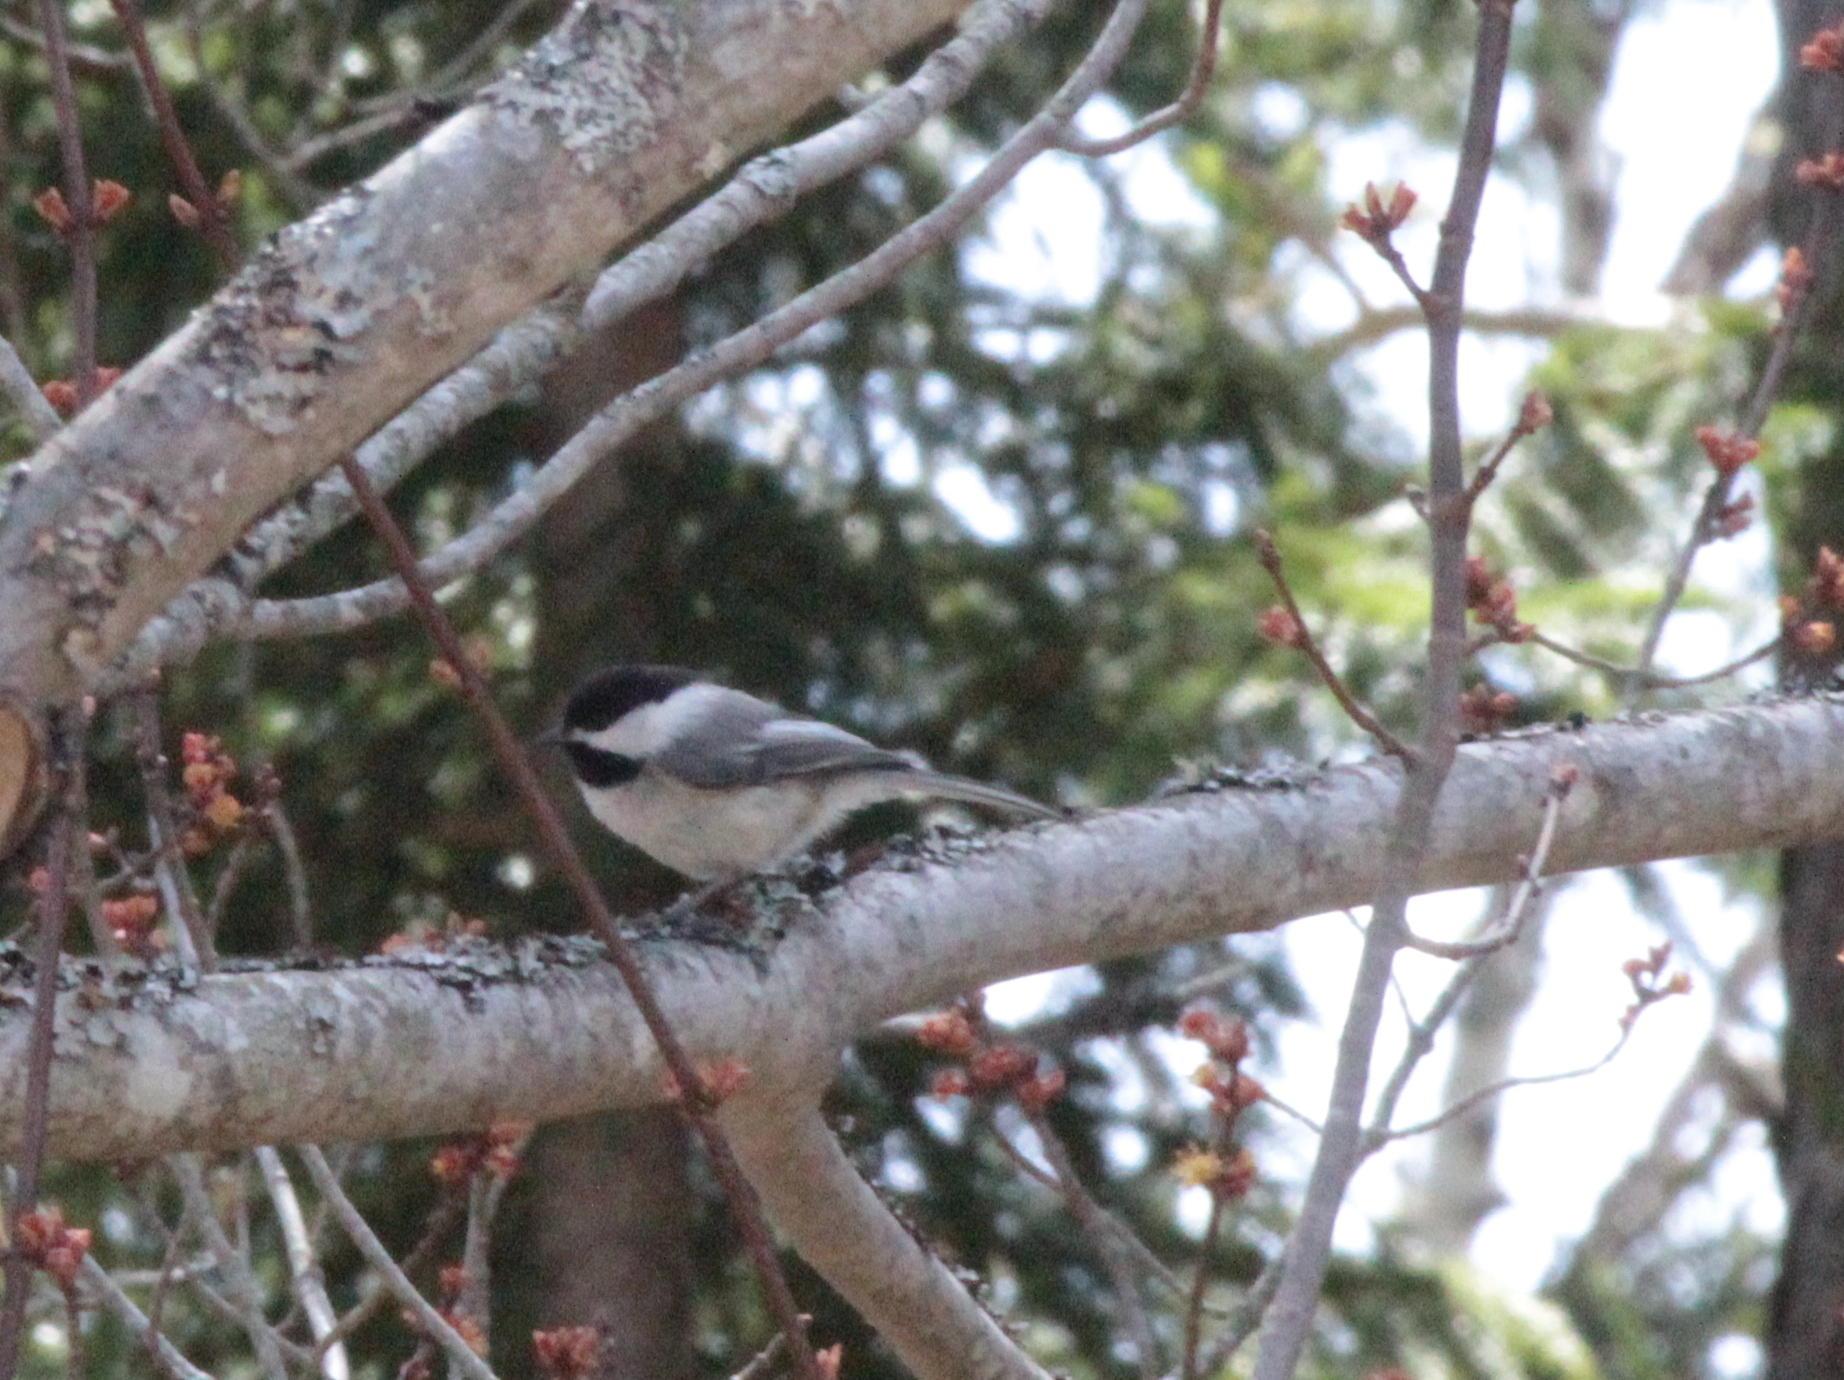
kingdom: Animalia
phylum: Chordata
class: Aves
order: Passeriformes
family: Paridae
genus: Poecile
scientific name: Poecile atricapillus
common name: Black-capped chickadee
